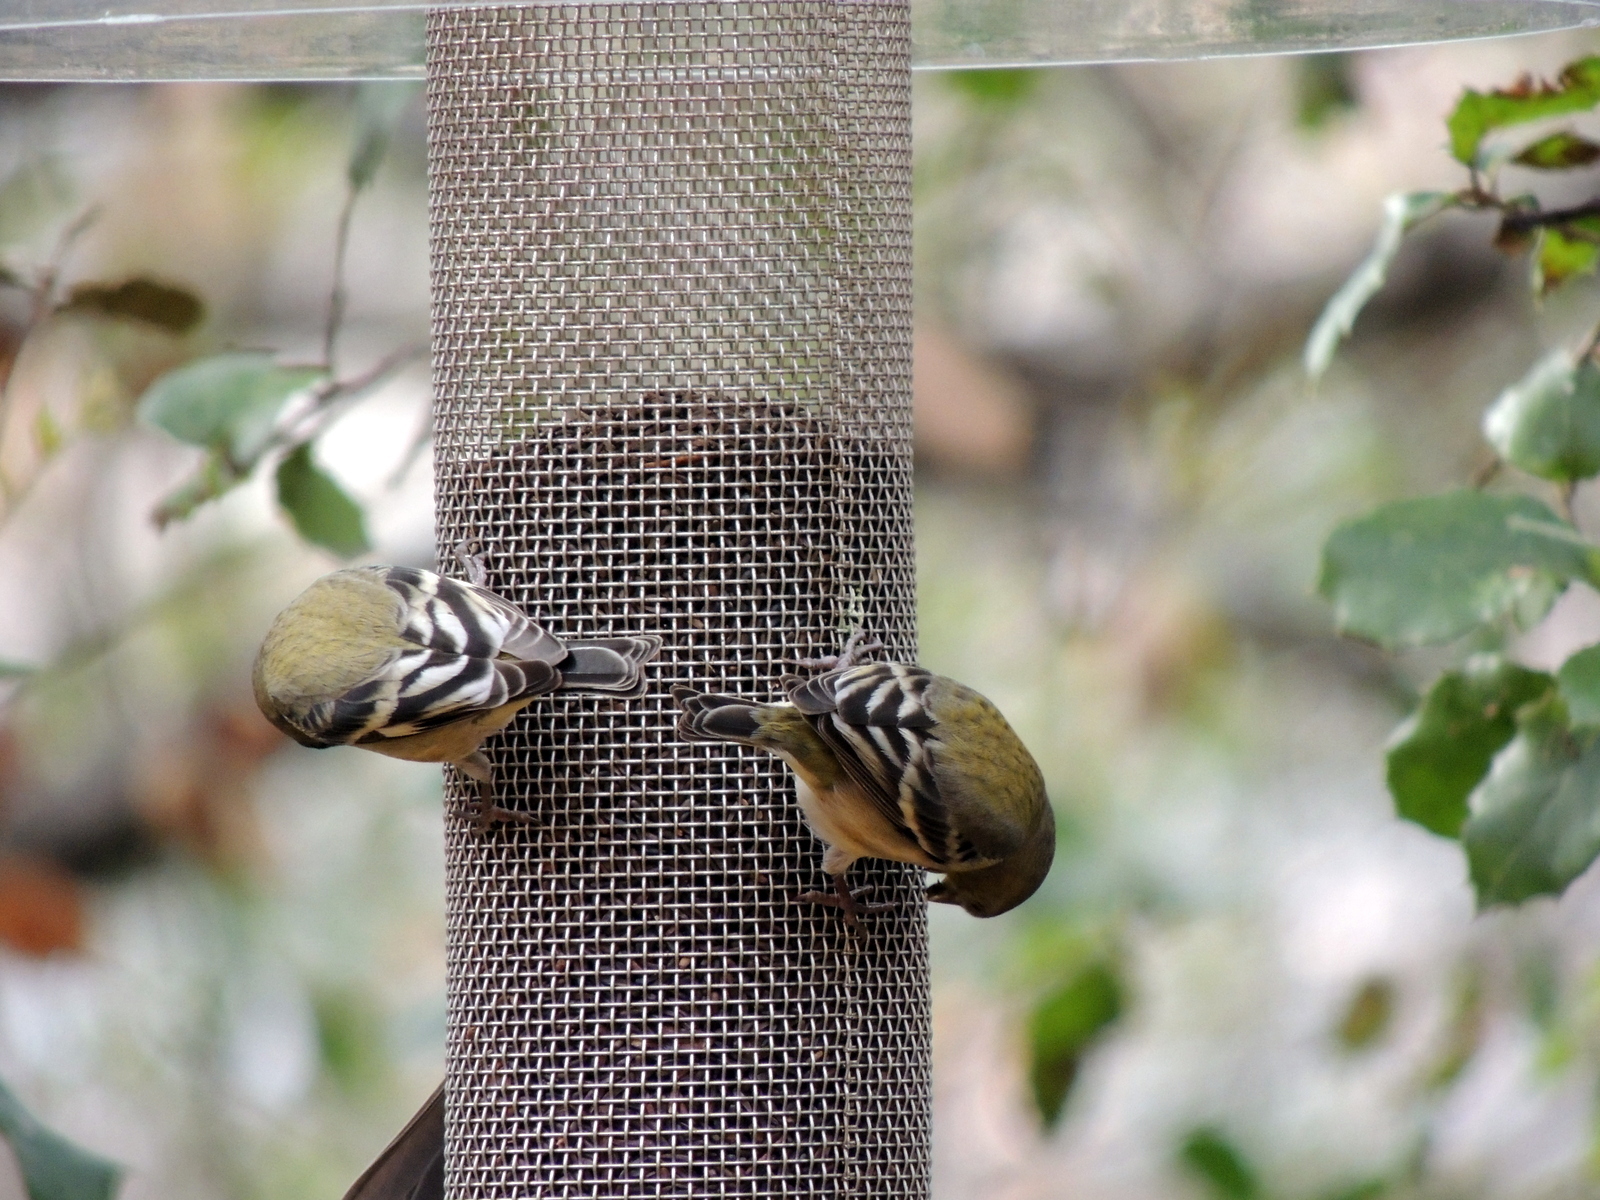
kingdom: Animalia
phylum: Chordata
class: Aves
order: Passeriformes
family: Fringillidae
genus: Spinus
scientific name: Spinus psaltria
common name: Lesser goldfinch
